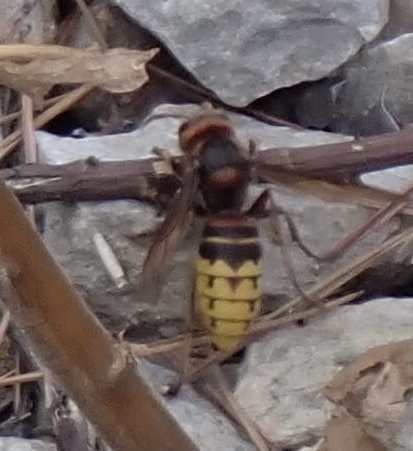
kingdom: Animalia
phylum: Arthropoda
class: Insecta
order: Hymenoptera
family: Vespidae
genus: Vespa
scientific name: Vespa crabro
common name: Hornet
